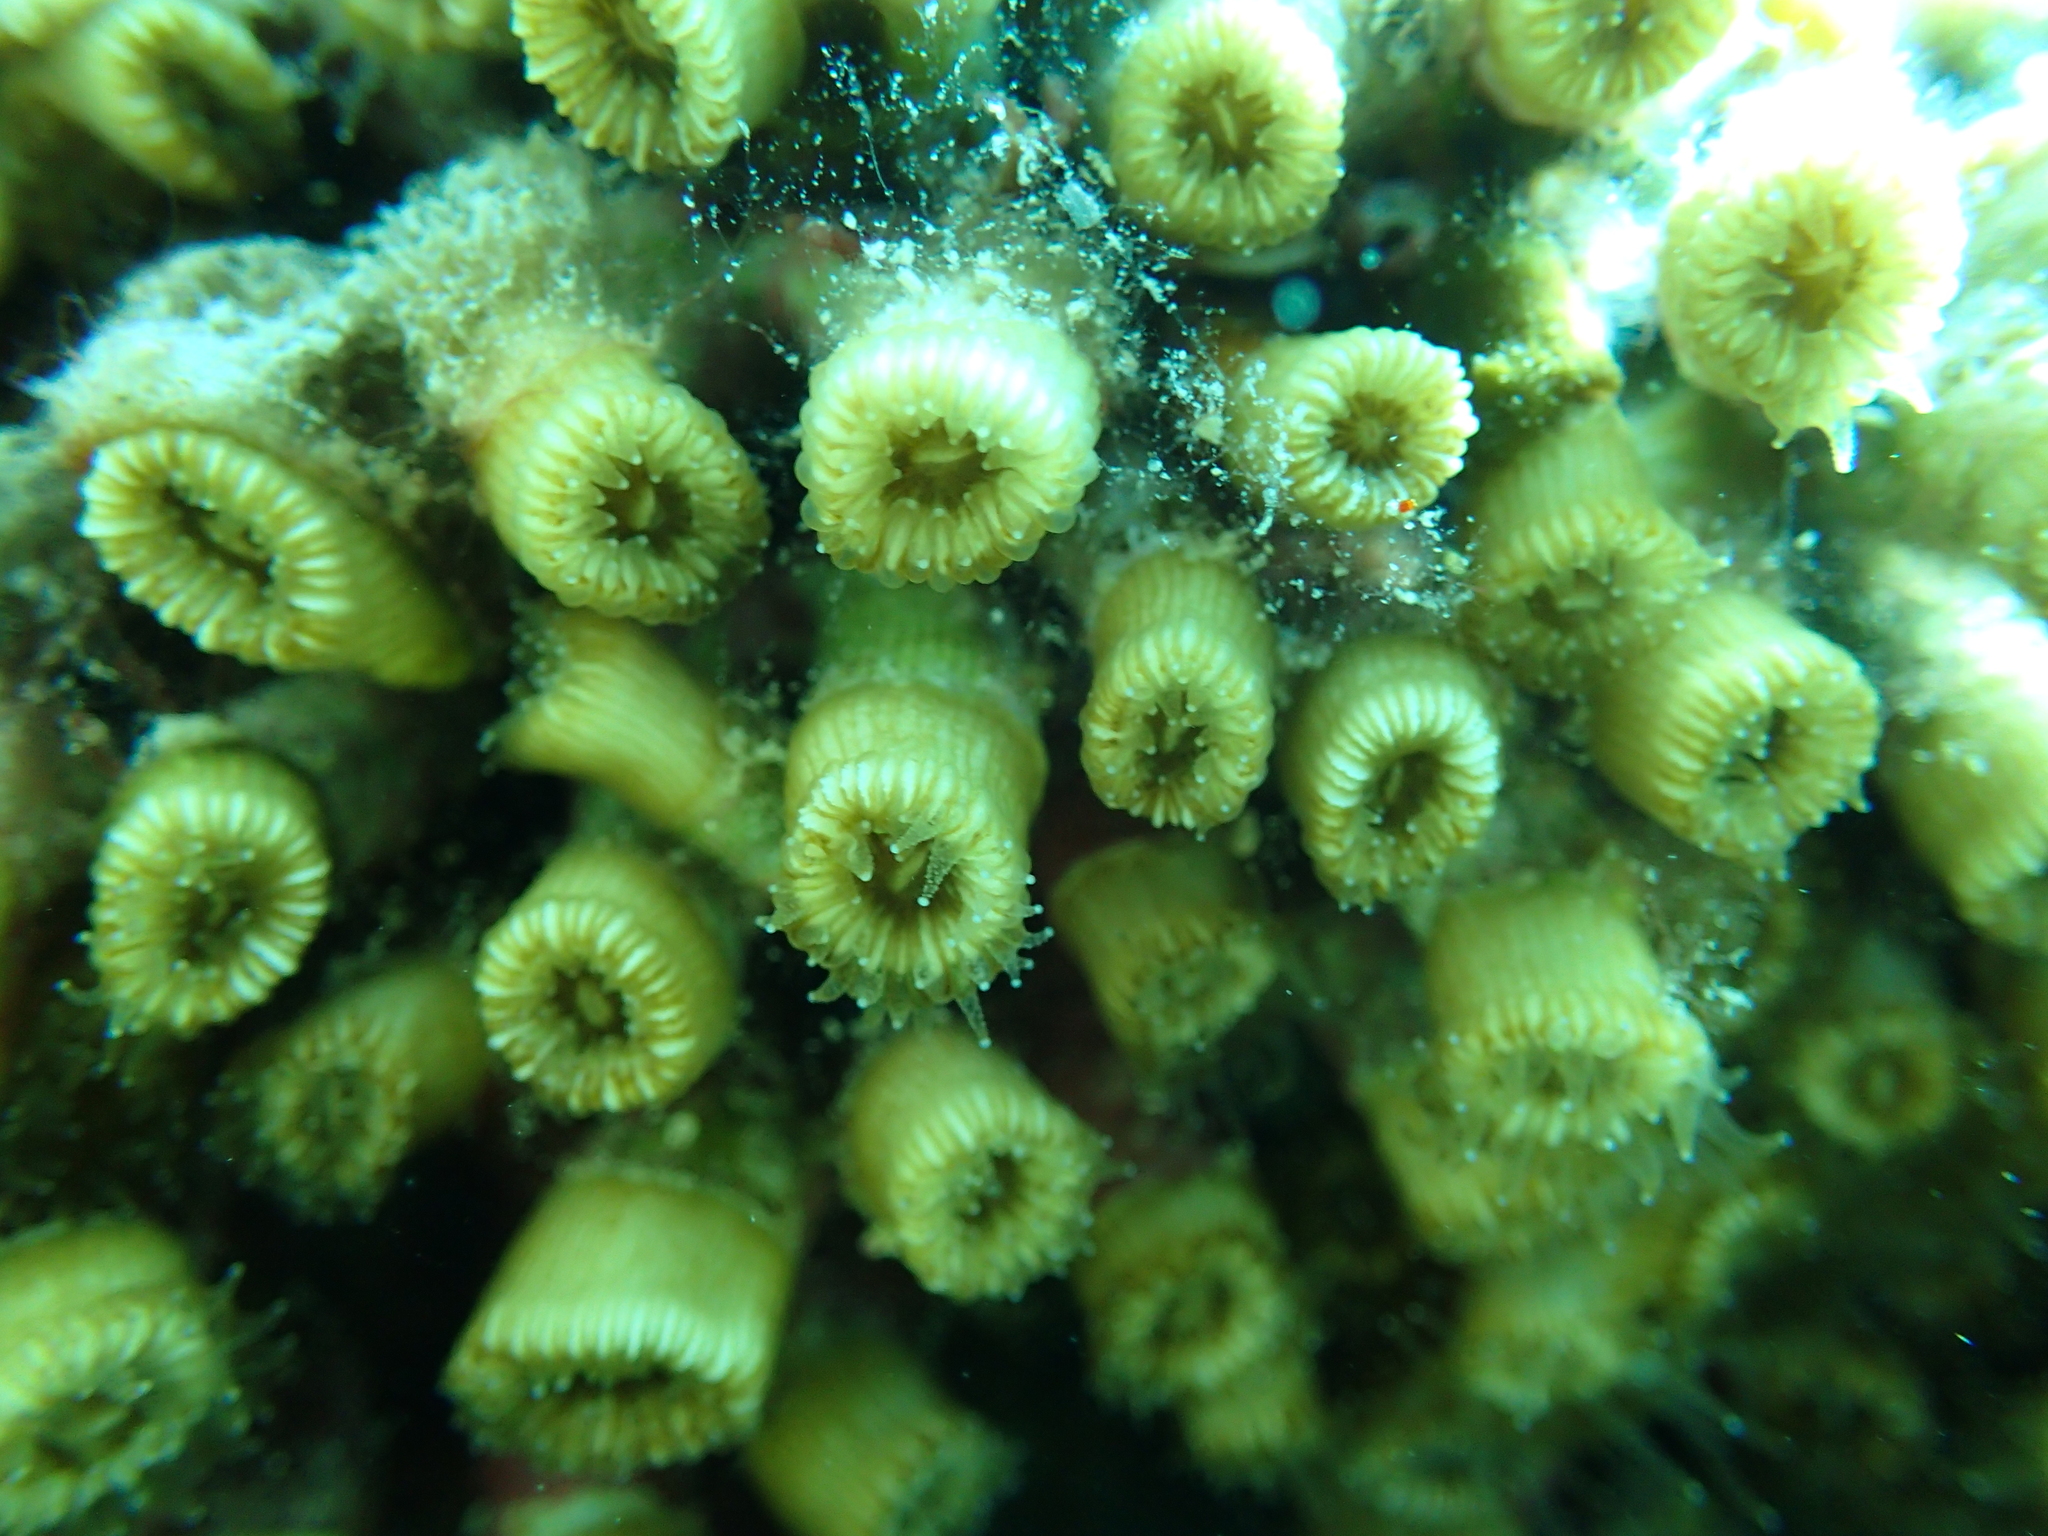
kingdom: Animalia
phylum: Cnidaria
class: Anthozoa
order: Scleractinia
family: Cladocoridae
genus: Cladocora
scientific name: Cladocora caespitosa
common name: Cladocora
